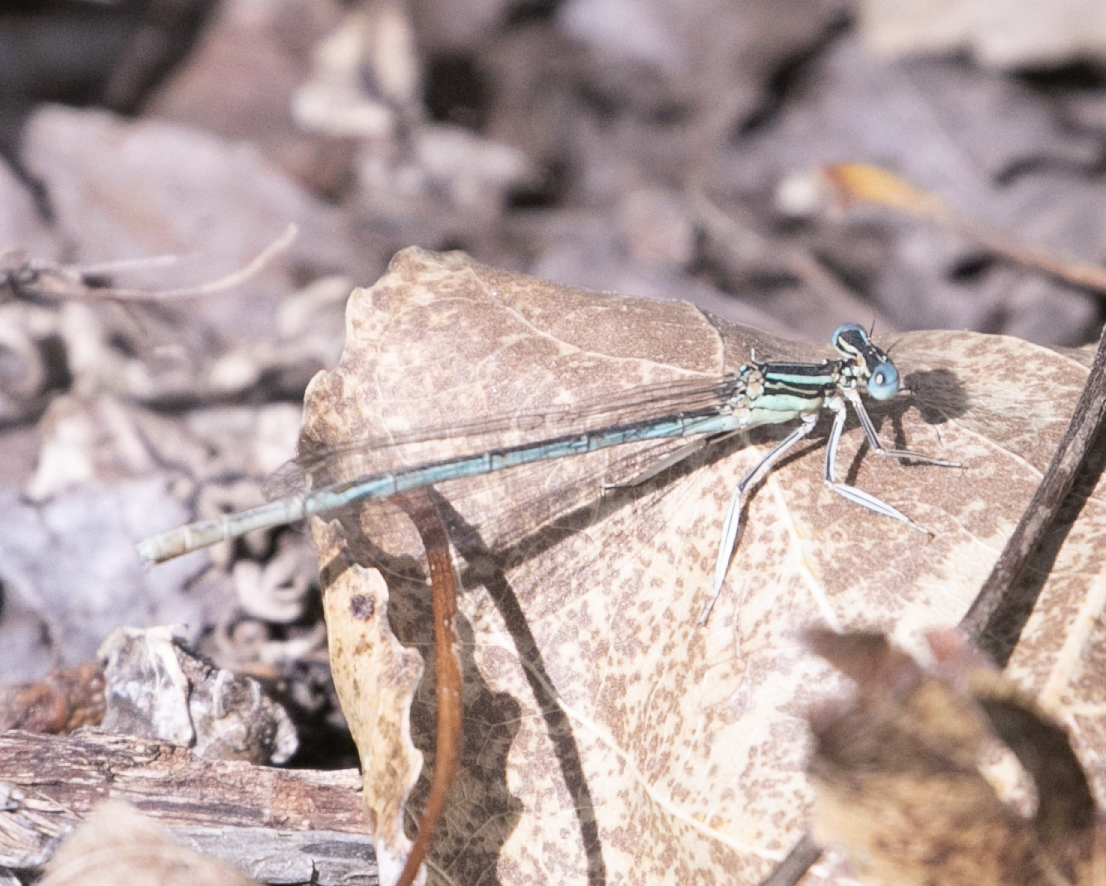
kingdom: Animalia
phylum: Arthropoda
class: Insecta
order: Odonata
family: Platycnemididae
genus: Platycnemis
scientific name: Platycnemis pennipes
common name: White-legged damselfly
